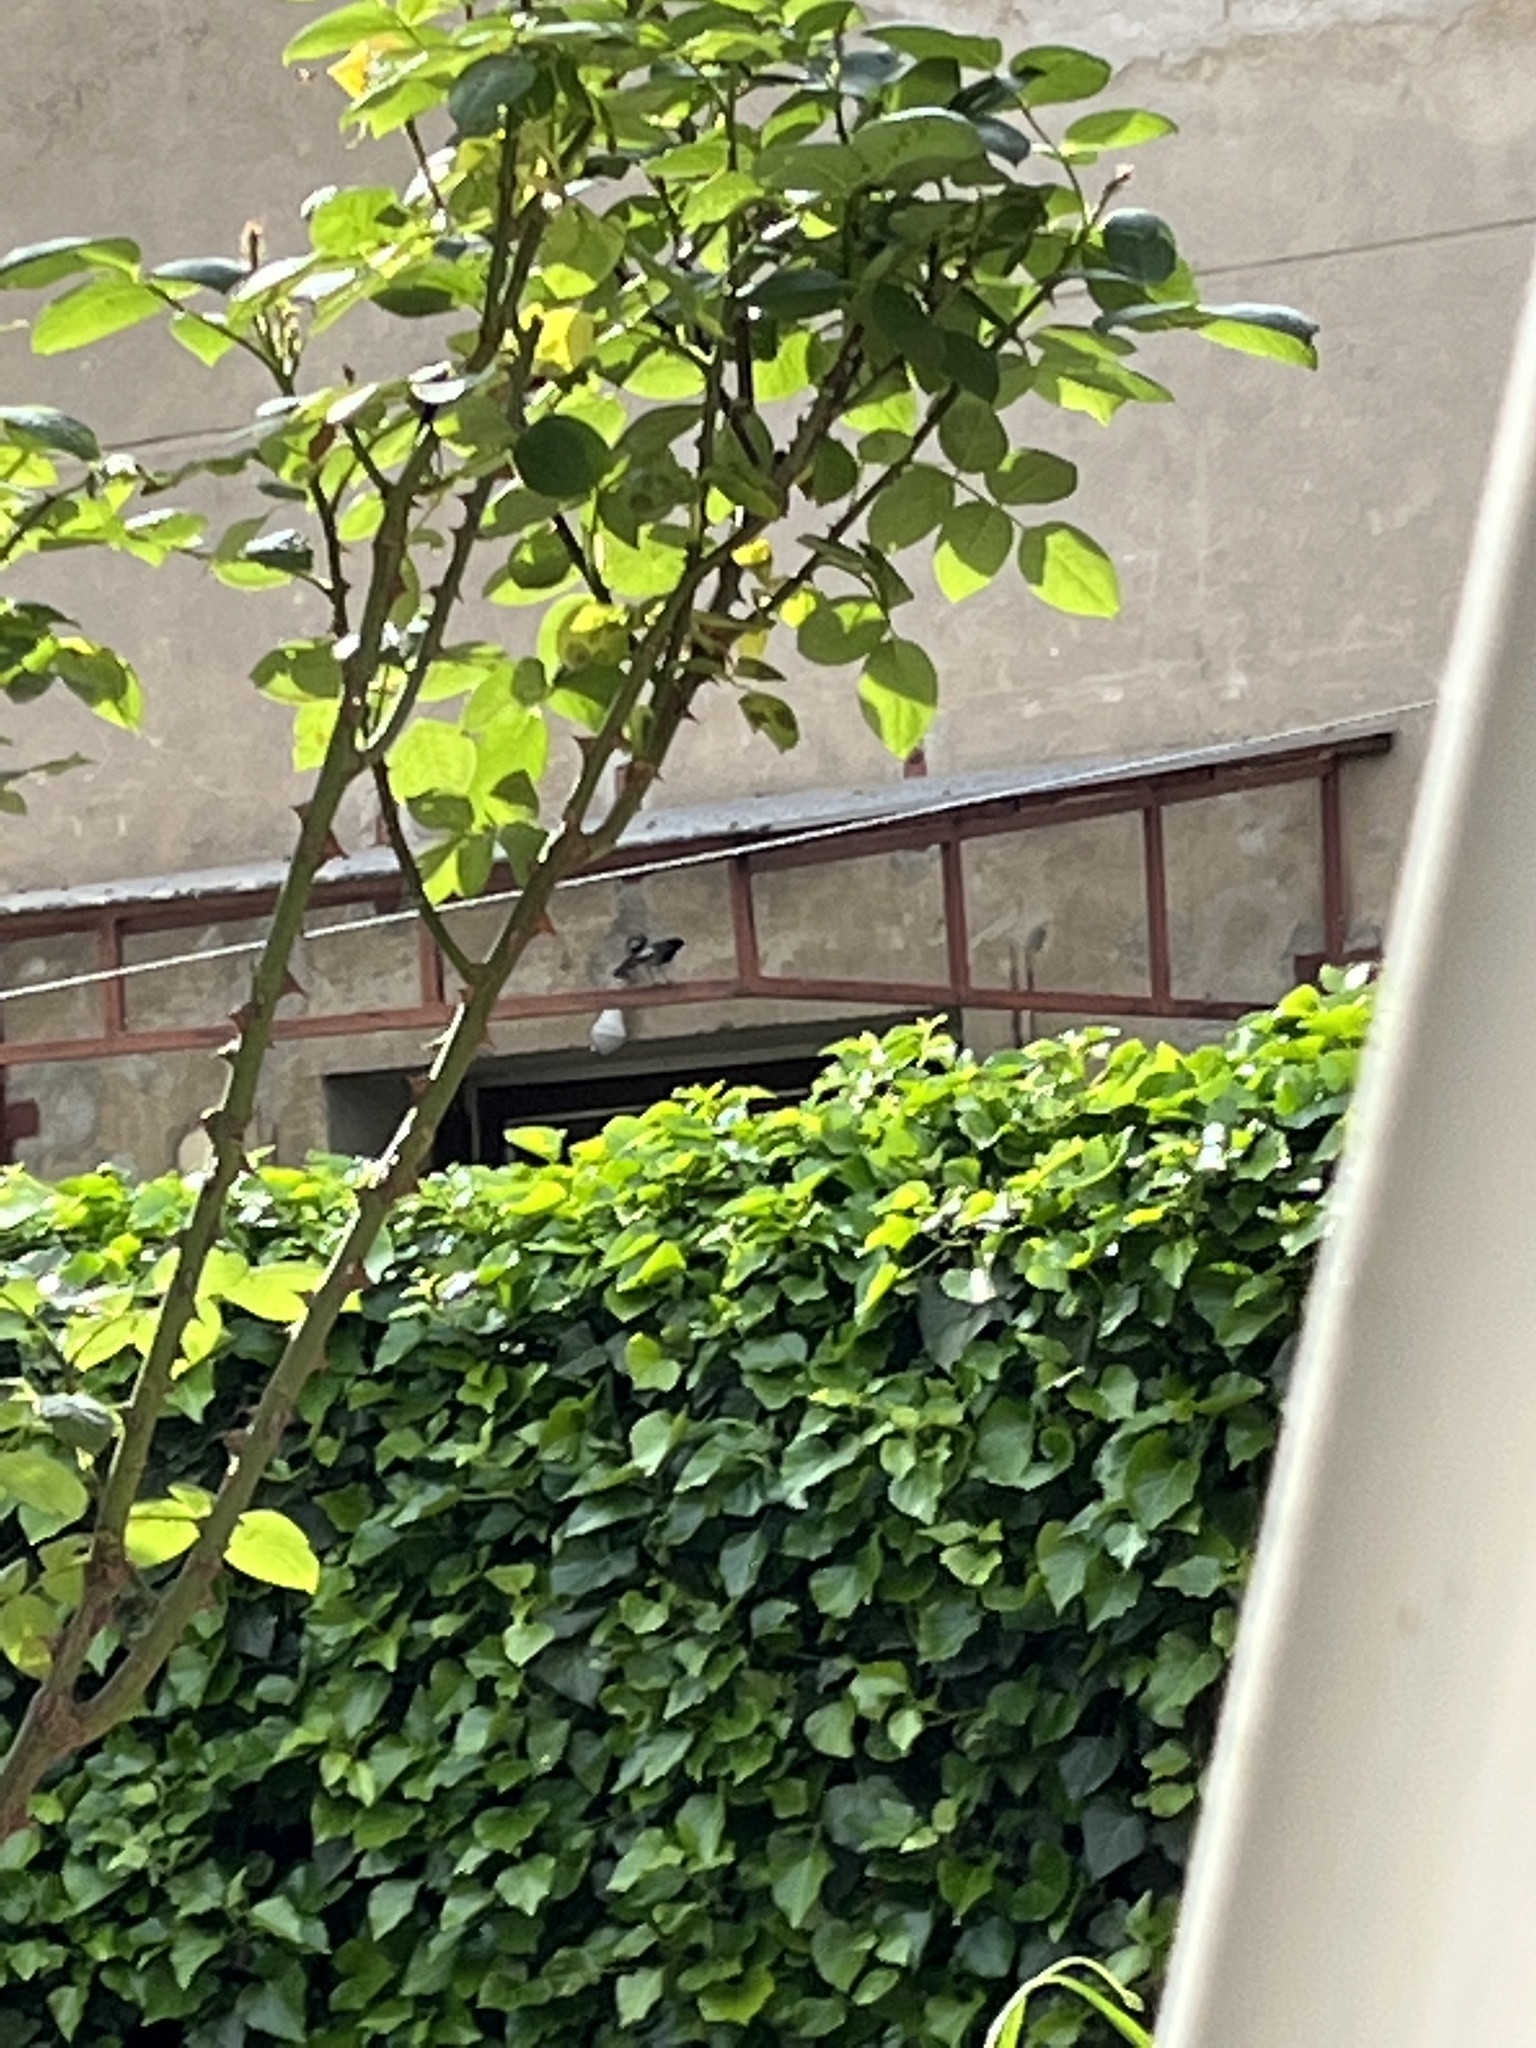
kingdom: Animalia
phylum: Chordata
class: Aves
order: Passeriformes
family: Muscicapidae
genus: Phoenicurus
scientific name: Phoenicurus ochruros
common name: Black redstart
